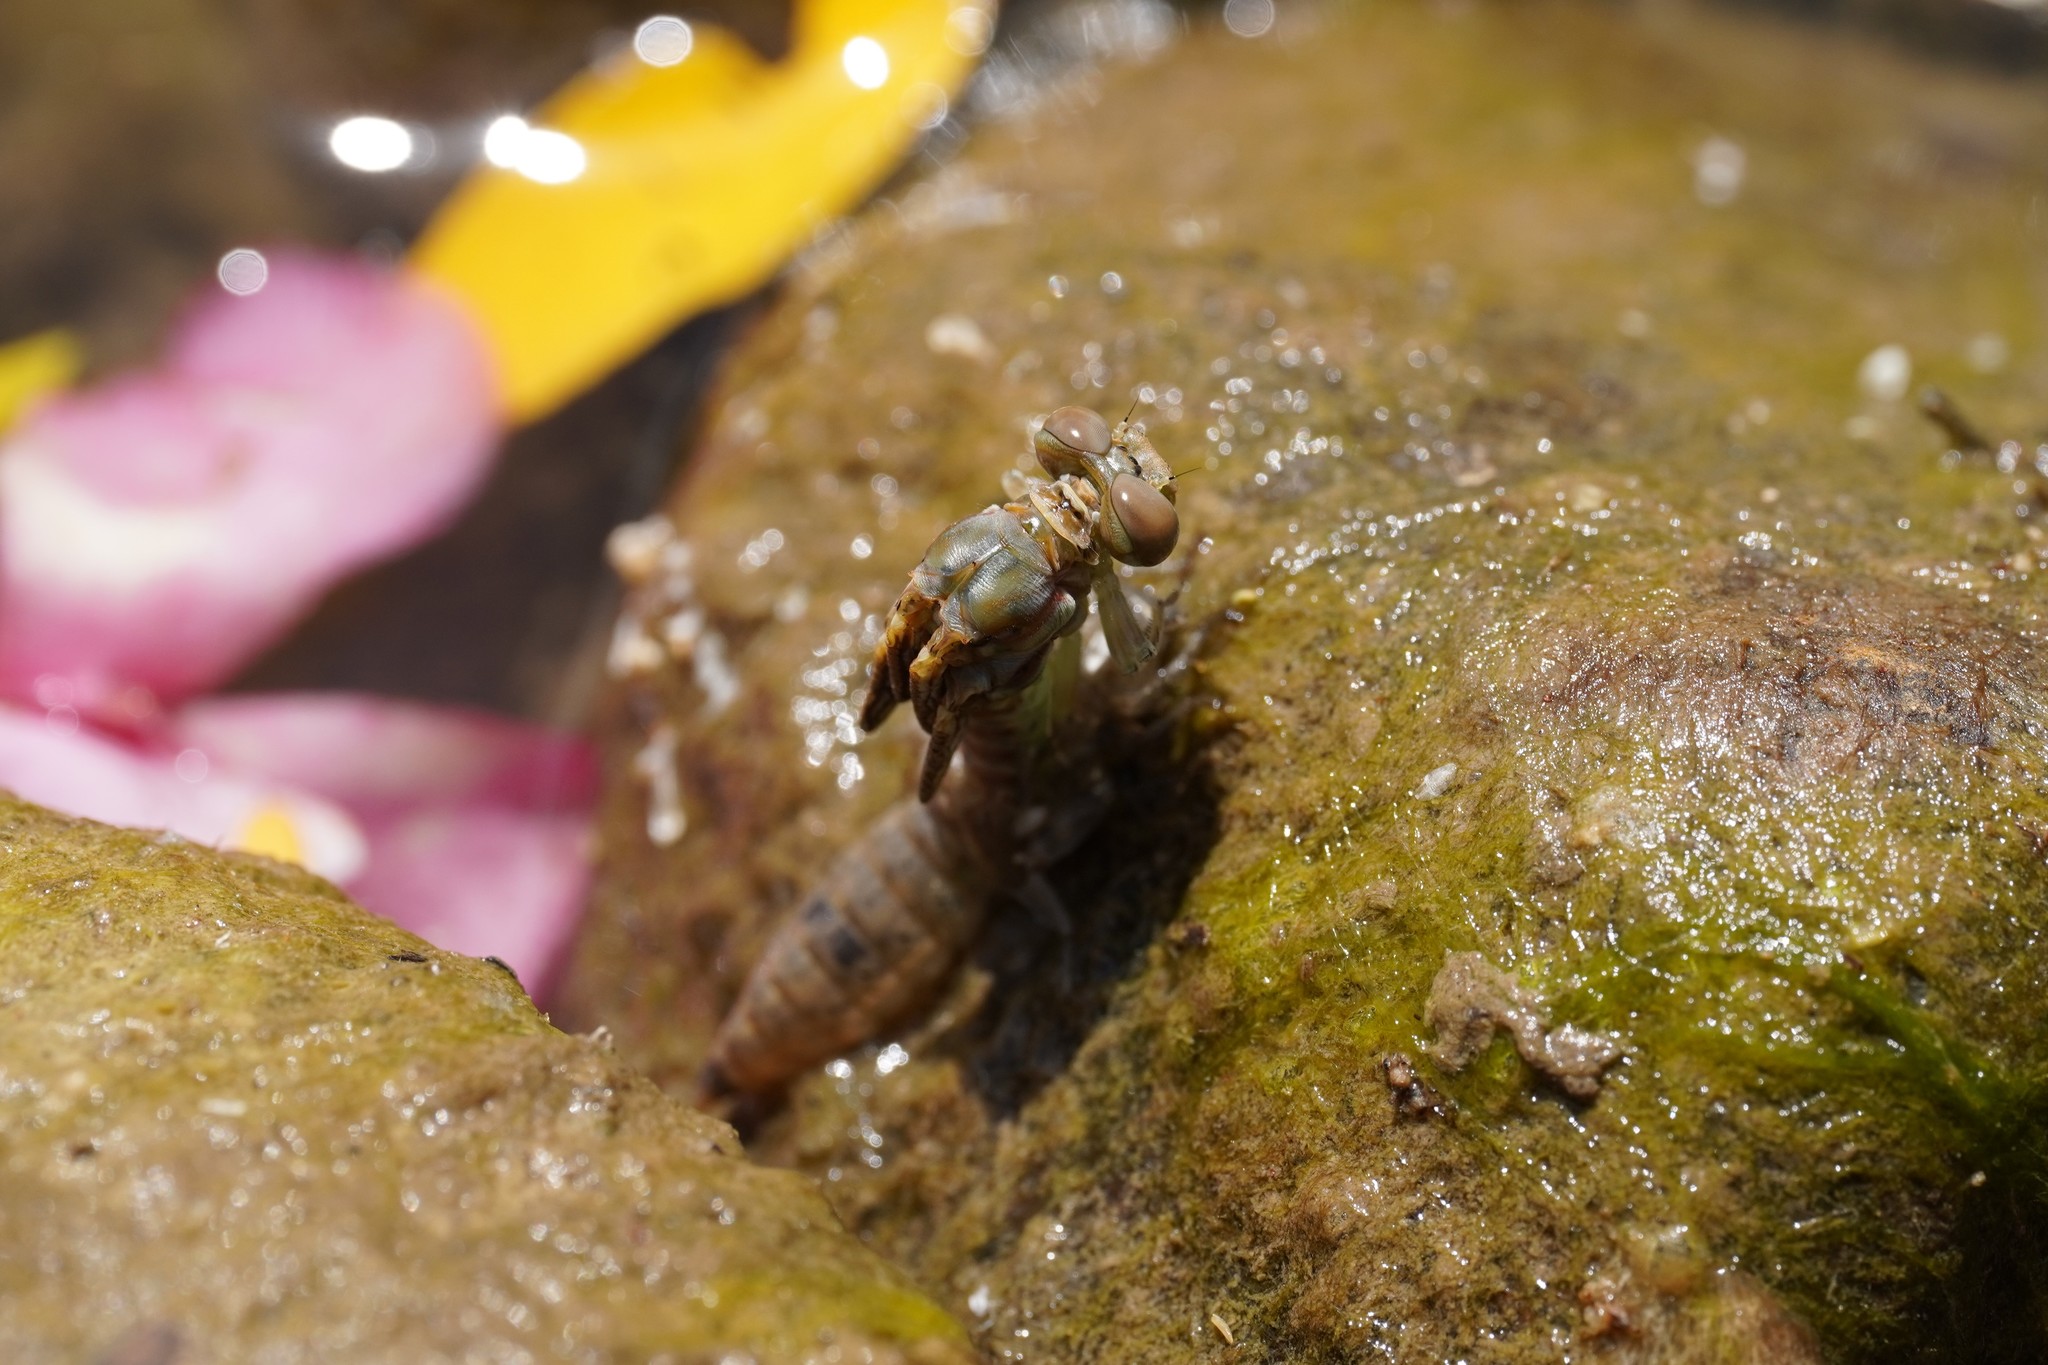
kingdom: Animalia
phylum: Arthropoda
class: Insecta
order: Odonata
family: Gomphidae
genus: Onychogomphus
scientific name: Onychogomphus costae
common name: Faded pincertail
